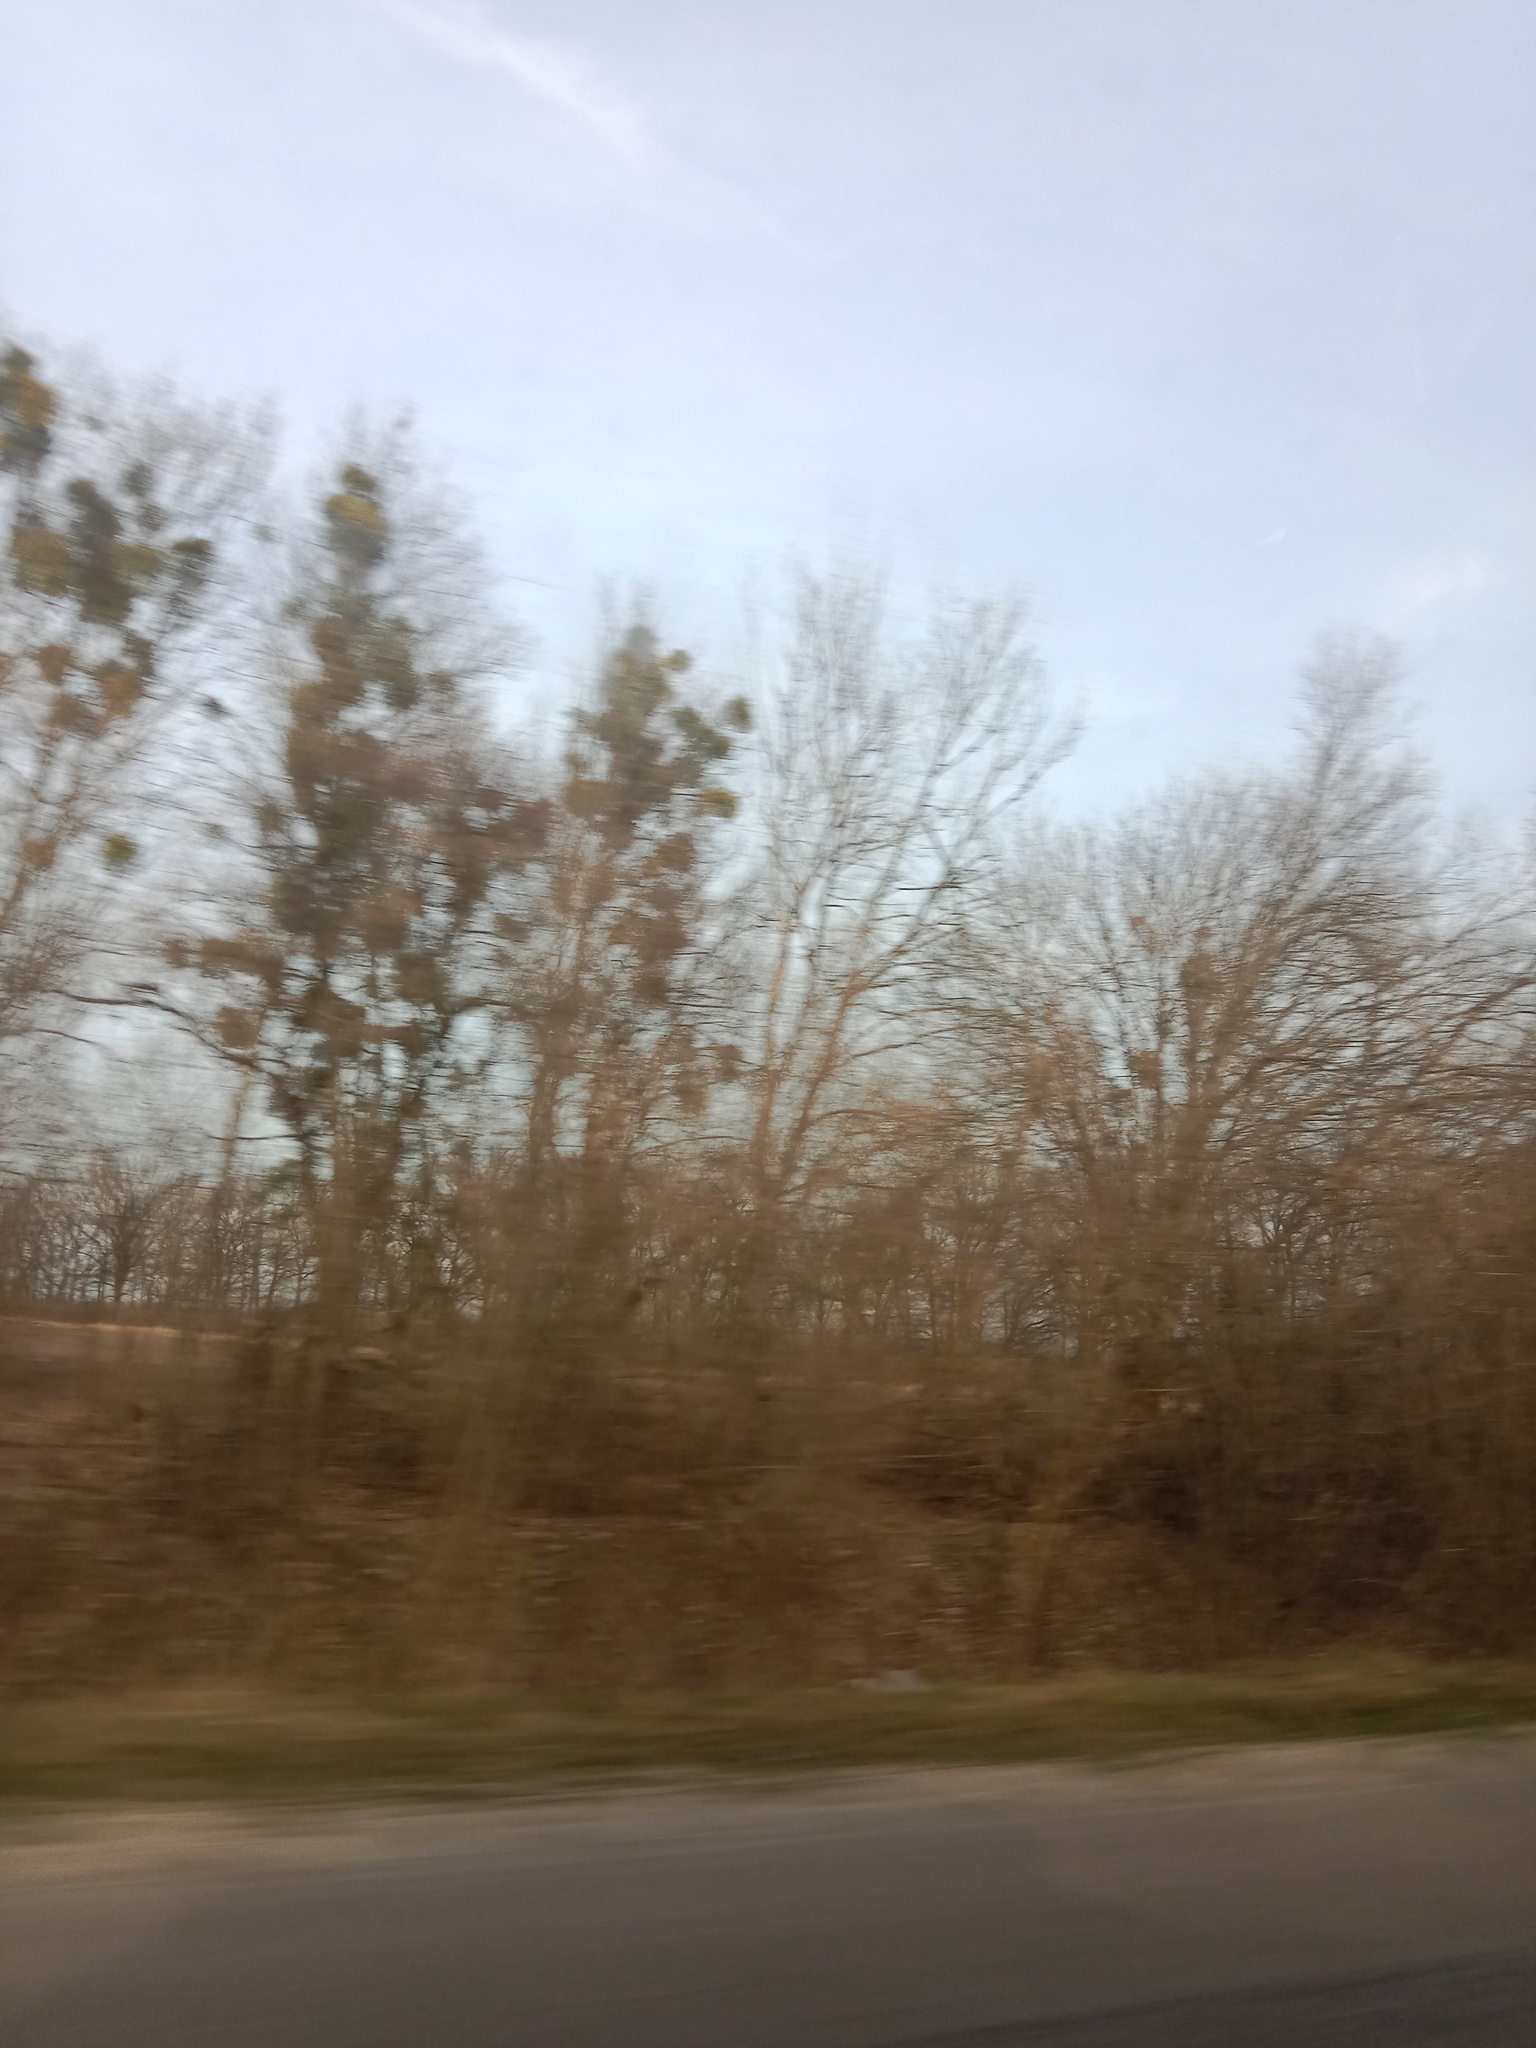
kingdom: Plantae
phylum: Tracheophyta
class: Magnoliopsida
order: Santalales
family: Viscaceae
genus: Viscum
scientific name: Viscum album
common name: Mistletoe
